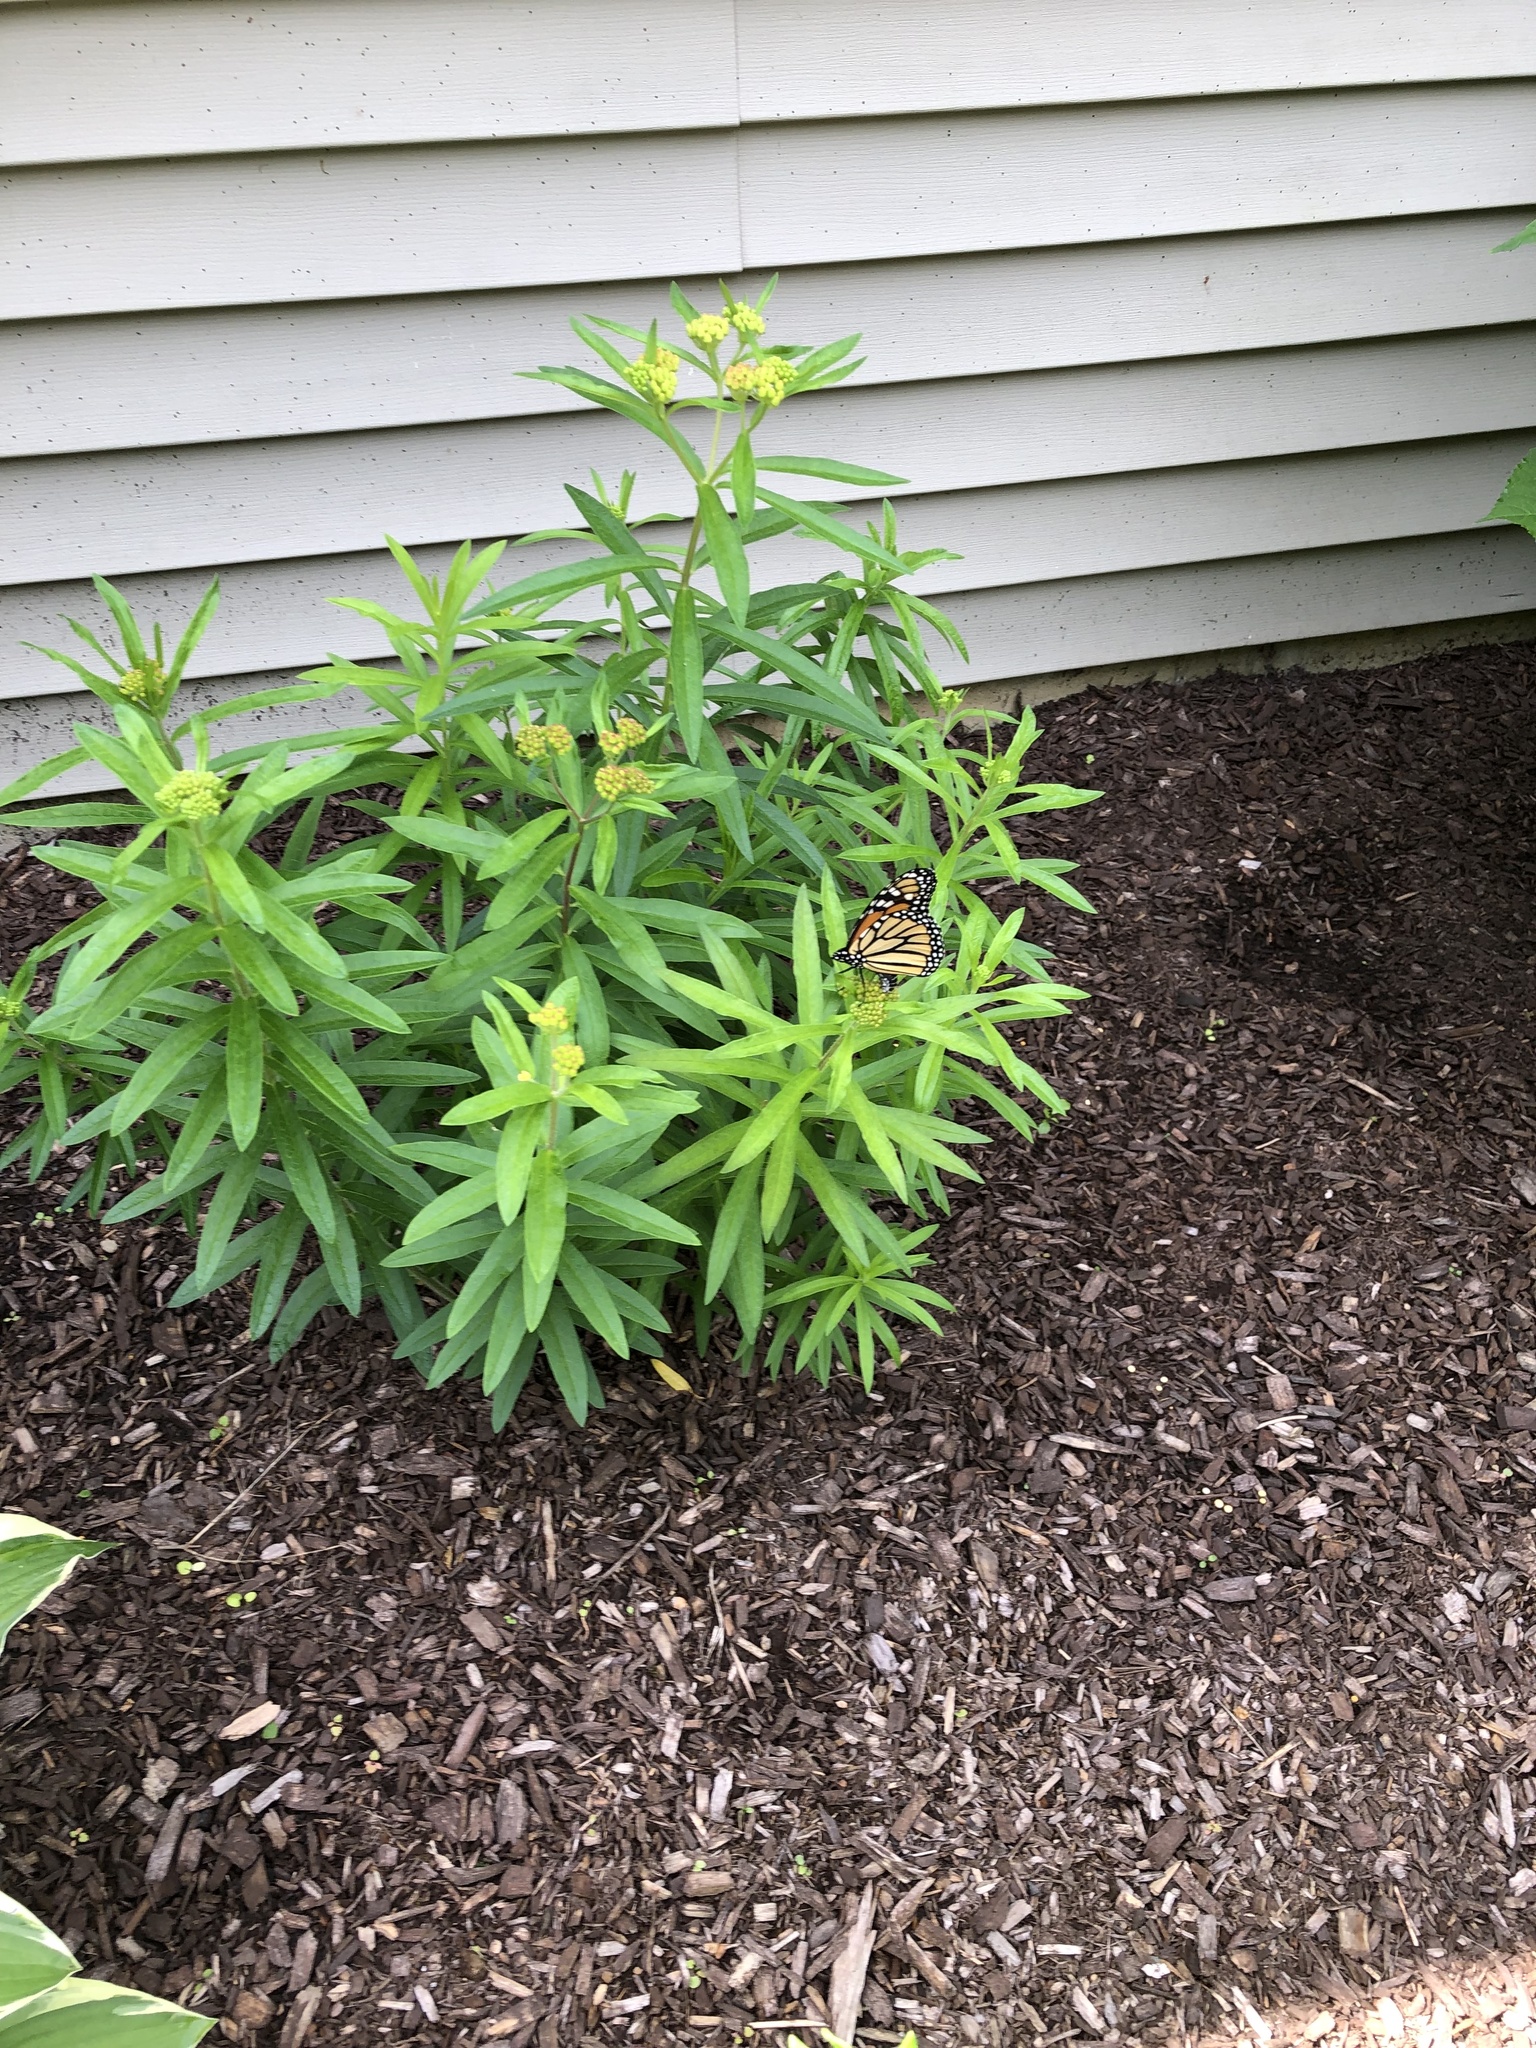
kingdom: Animalia
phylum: Arthropoda
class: Insecta
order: Lepidoptera
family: Nymphalidae
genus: Danaus
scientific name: Danaus plexippus
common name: Monarch
